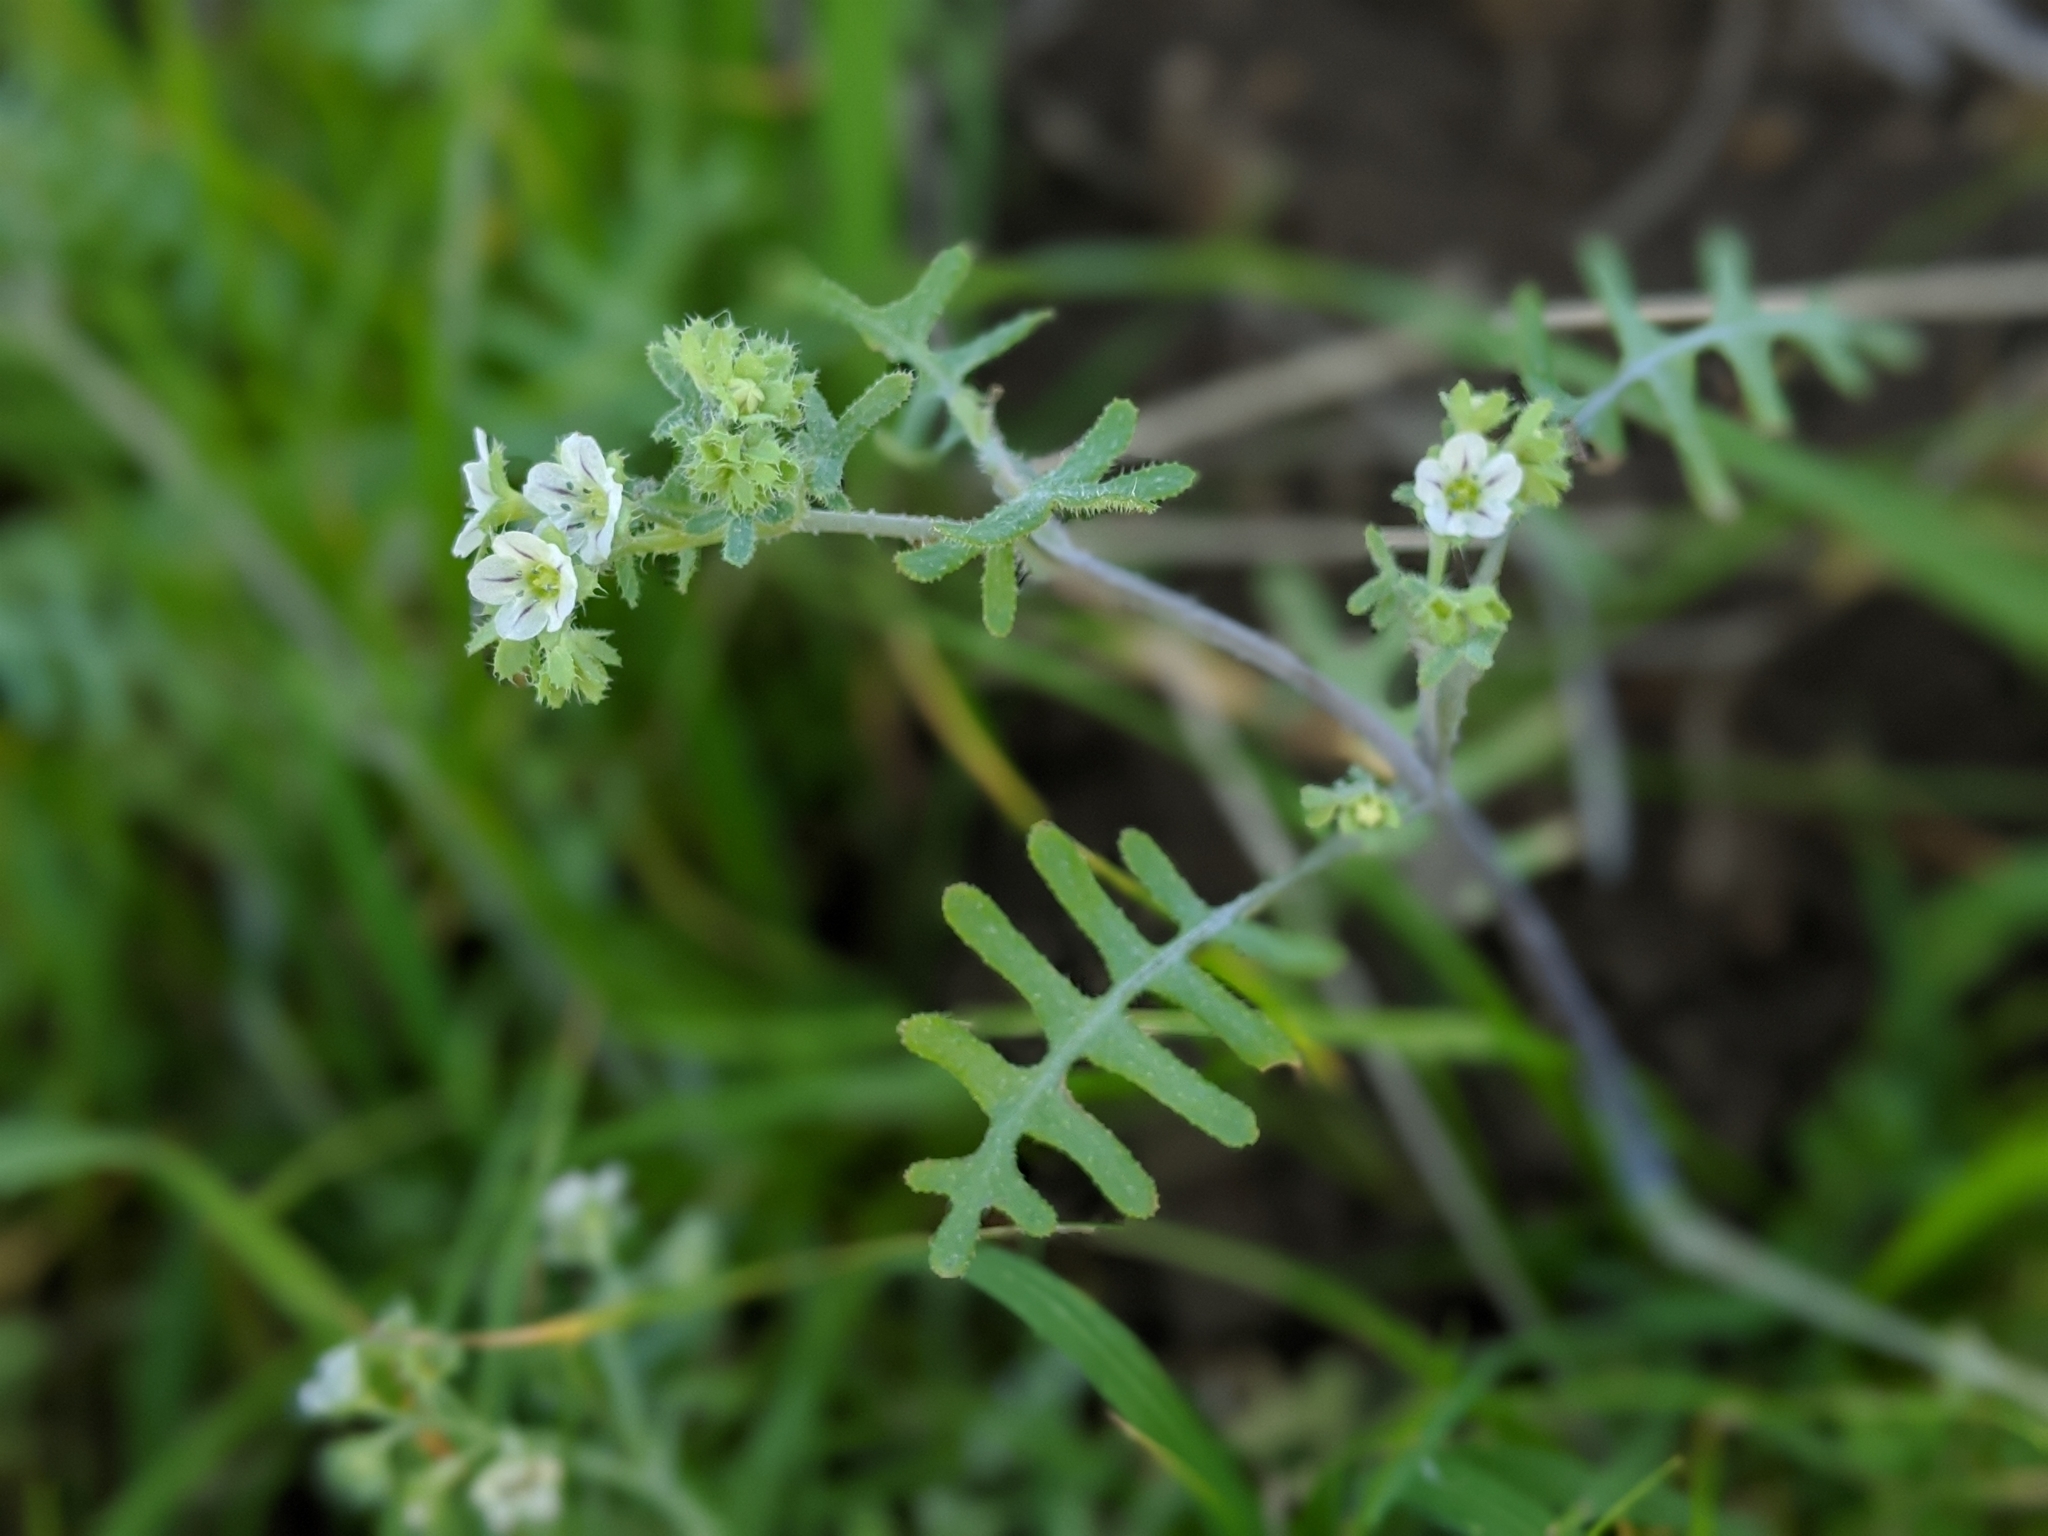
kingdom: Plantae
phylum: Tracheophyta
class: Magnoliopsida
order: Boraginales
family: Hydrophyllaceae
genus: Pholistoma
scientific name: Pholistoma membranaceum
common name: White fiesta-flower
